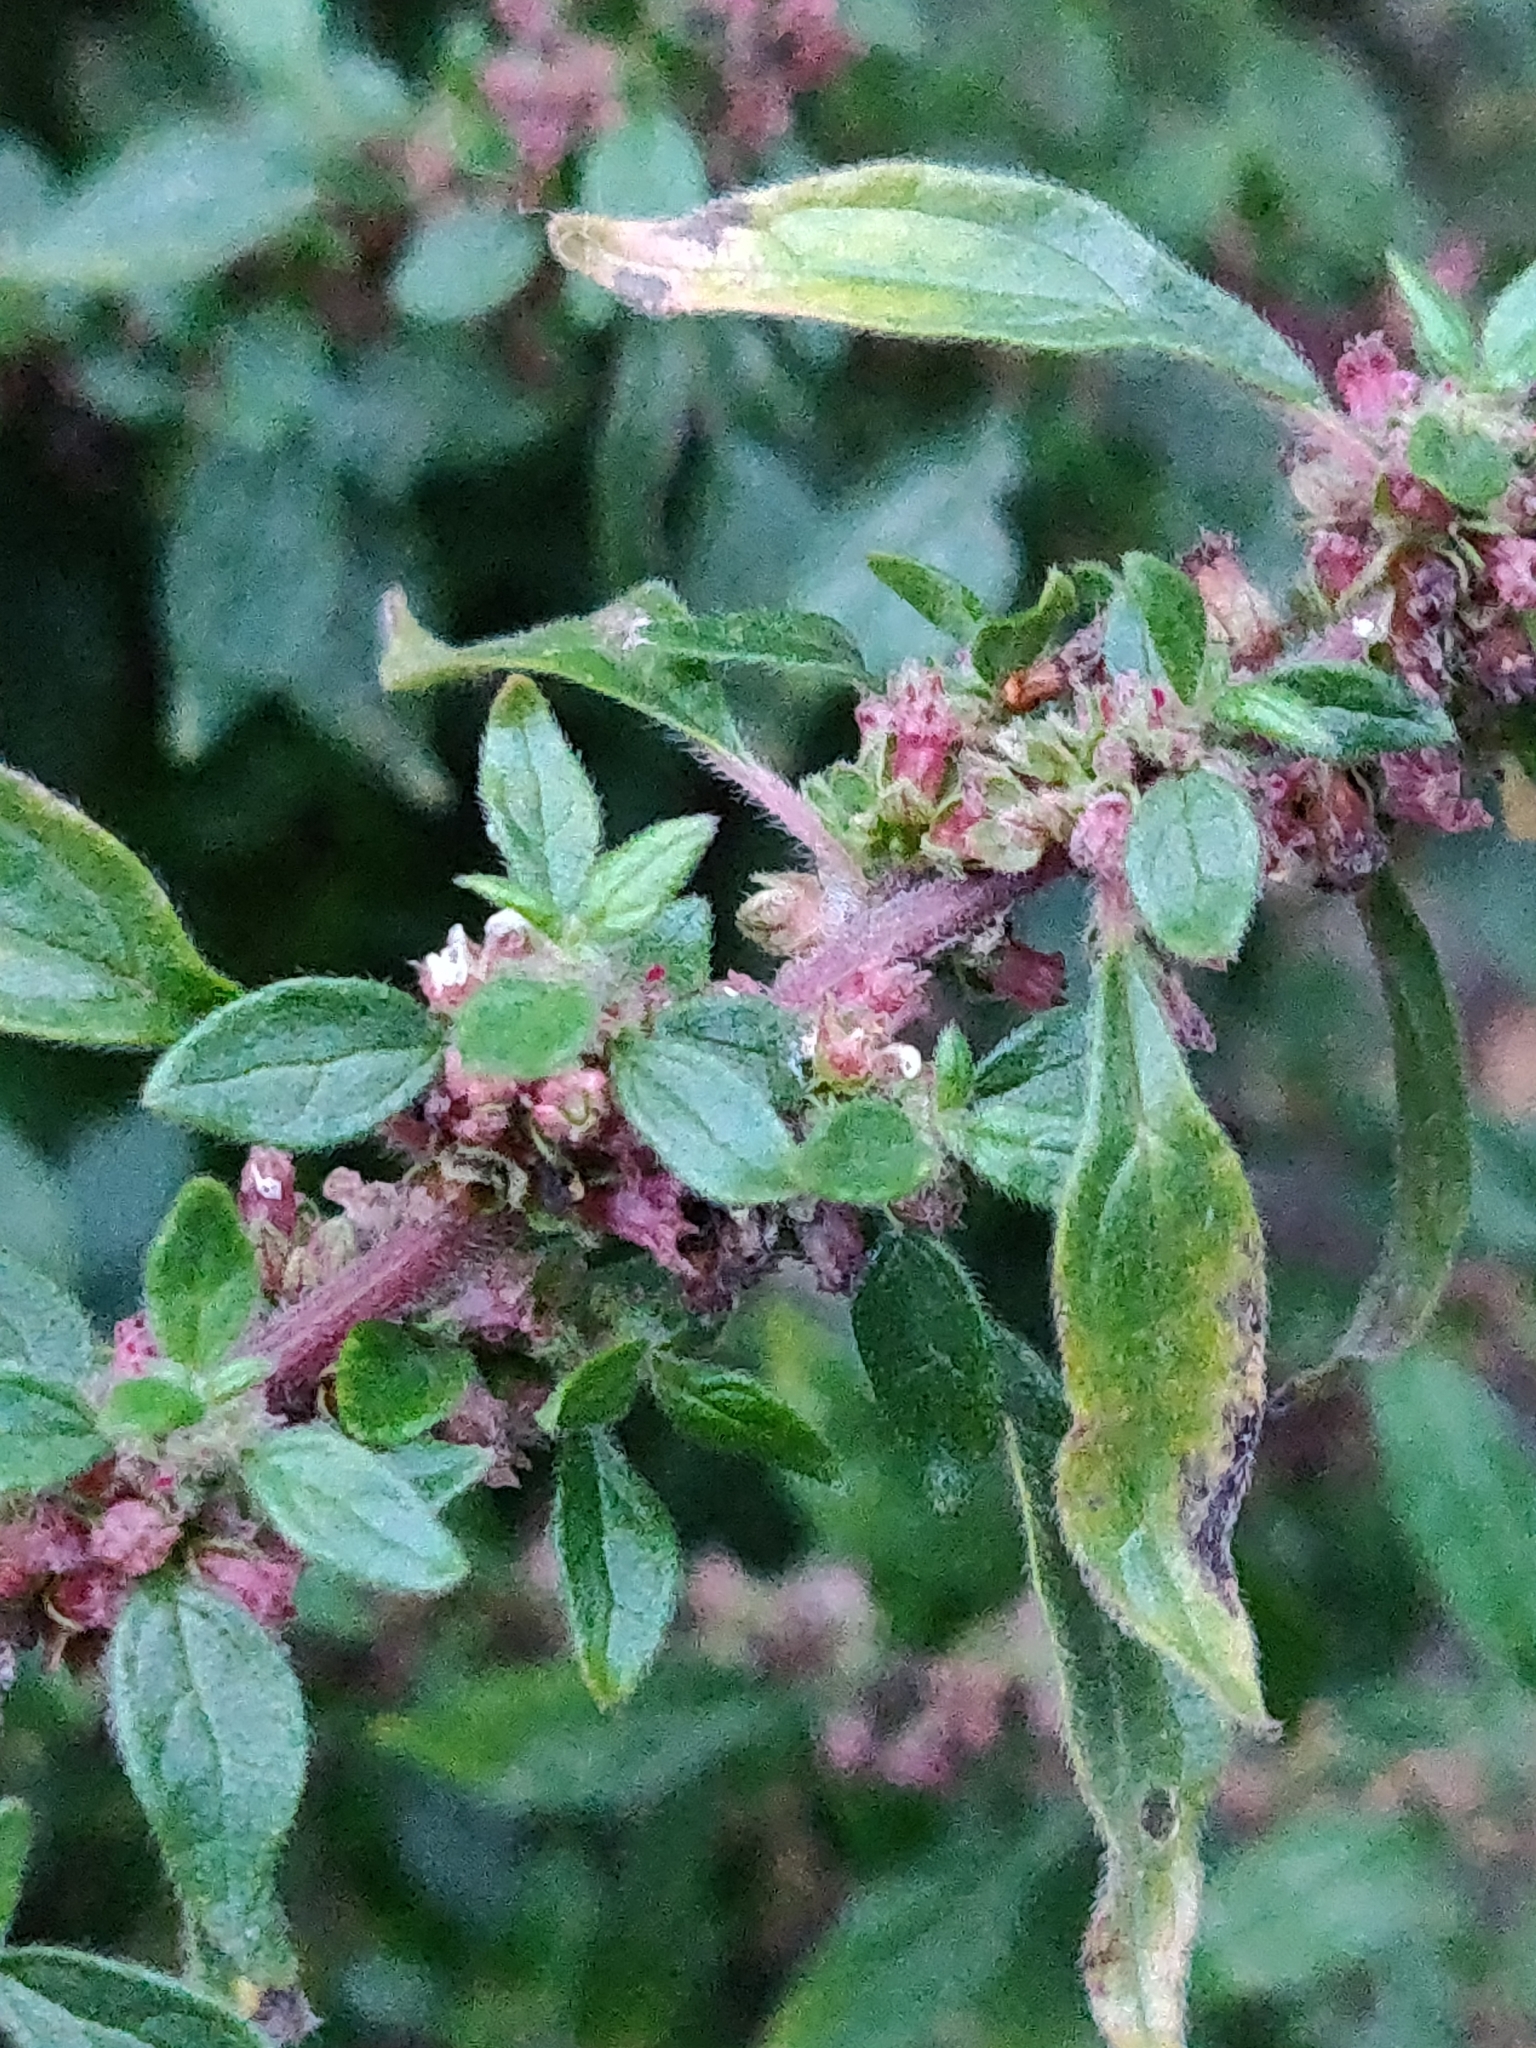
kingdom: Plantae
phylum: Tracheophyta
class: Magnoliopsida
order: Rosales
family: Urticaceae
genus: Parietaria
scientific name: Parietaria judaica
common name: Pellitory-of-the-wall
